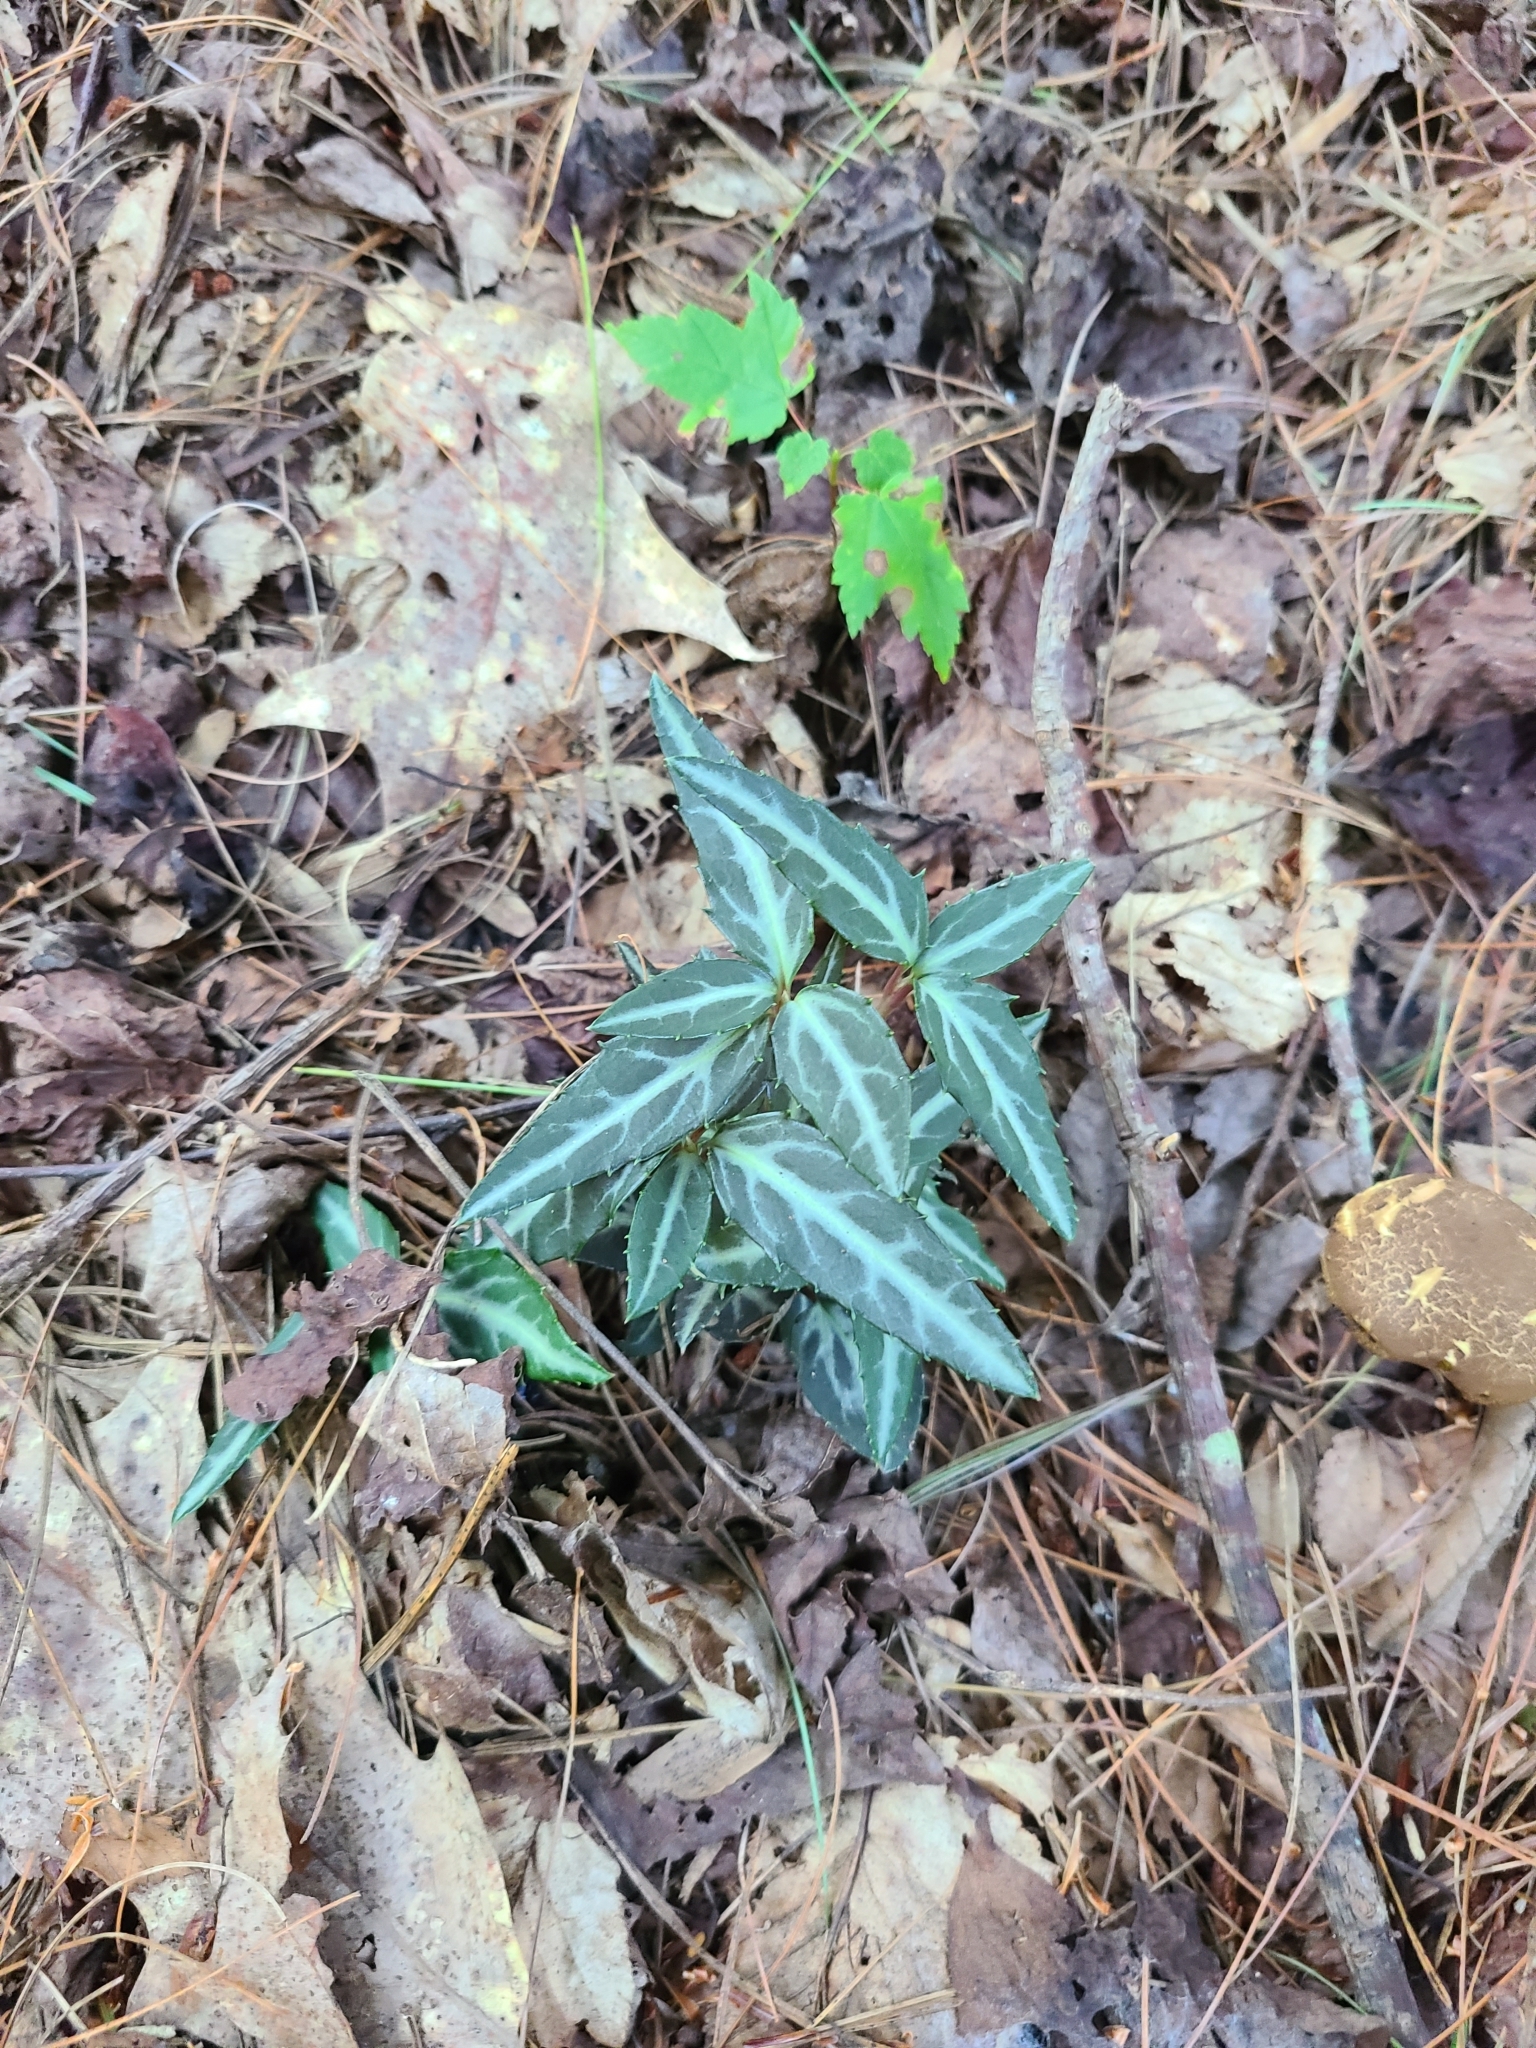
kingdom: Plantae
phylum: Tracheophyta
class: Magnoliopsida
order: Ericales
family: Ericaceae
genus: Chimaphila
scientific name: Chimaphila maculata
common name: Spotted pipsissewa
